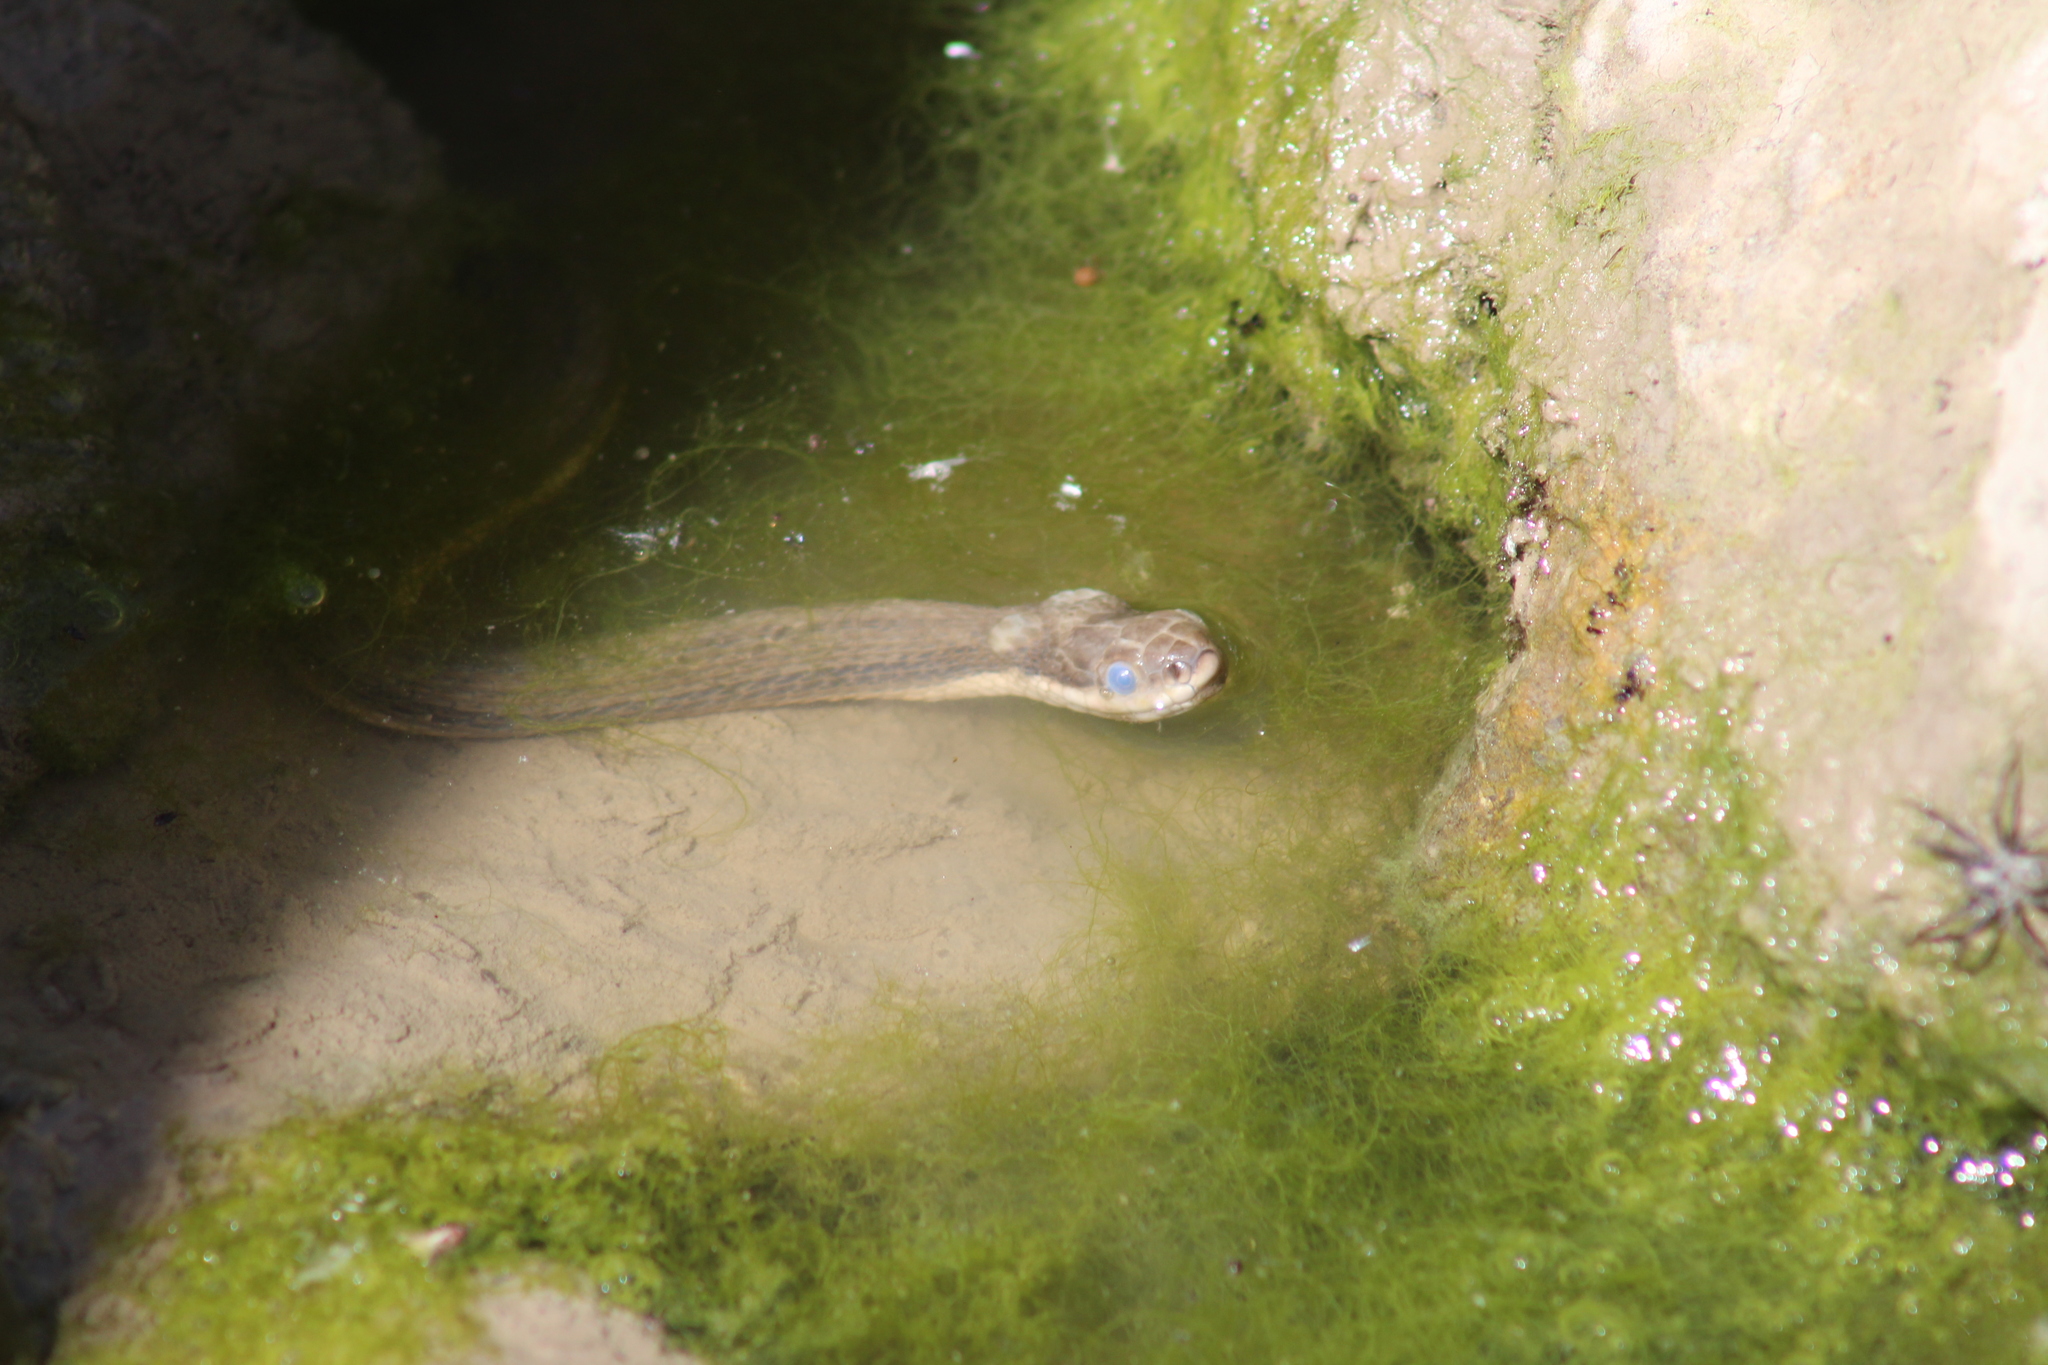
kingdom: Animalia
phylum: Chordata
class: Squamata
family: Colubridae
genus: Regina
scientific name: Regina septemvittata
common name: Queen snake
